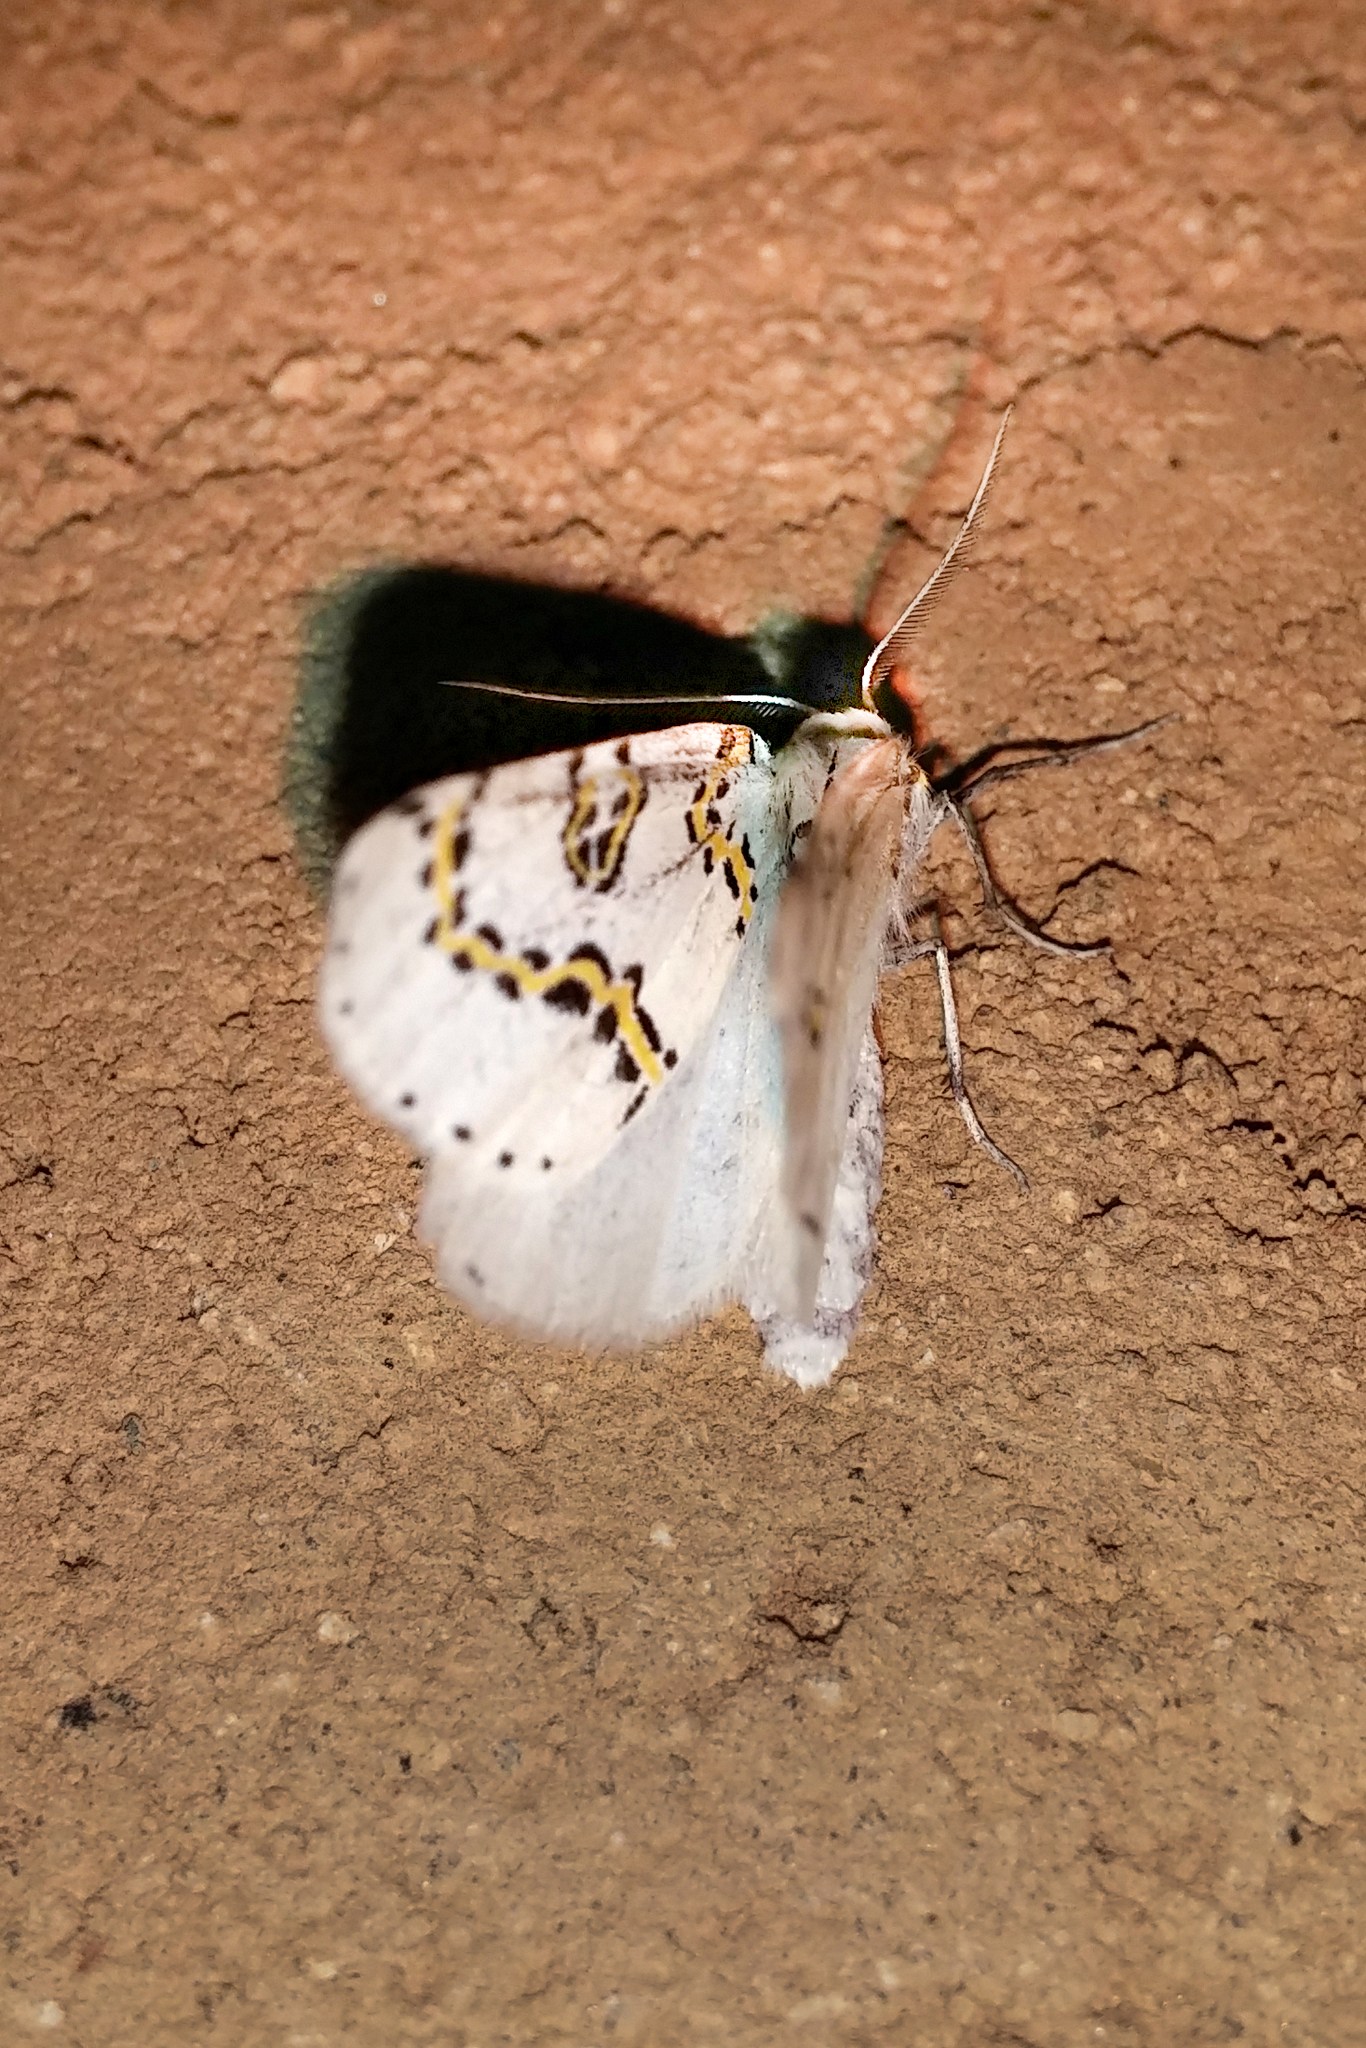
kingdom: Animalia
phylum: Arthropoda
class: Insecta
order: Lepidoptera
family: Geometridae
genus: Philtraea
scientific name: Philtraea mexicana
